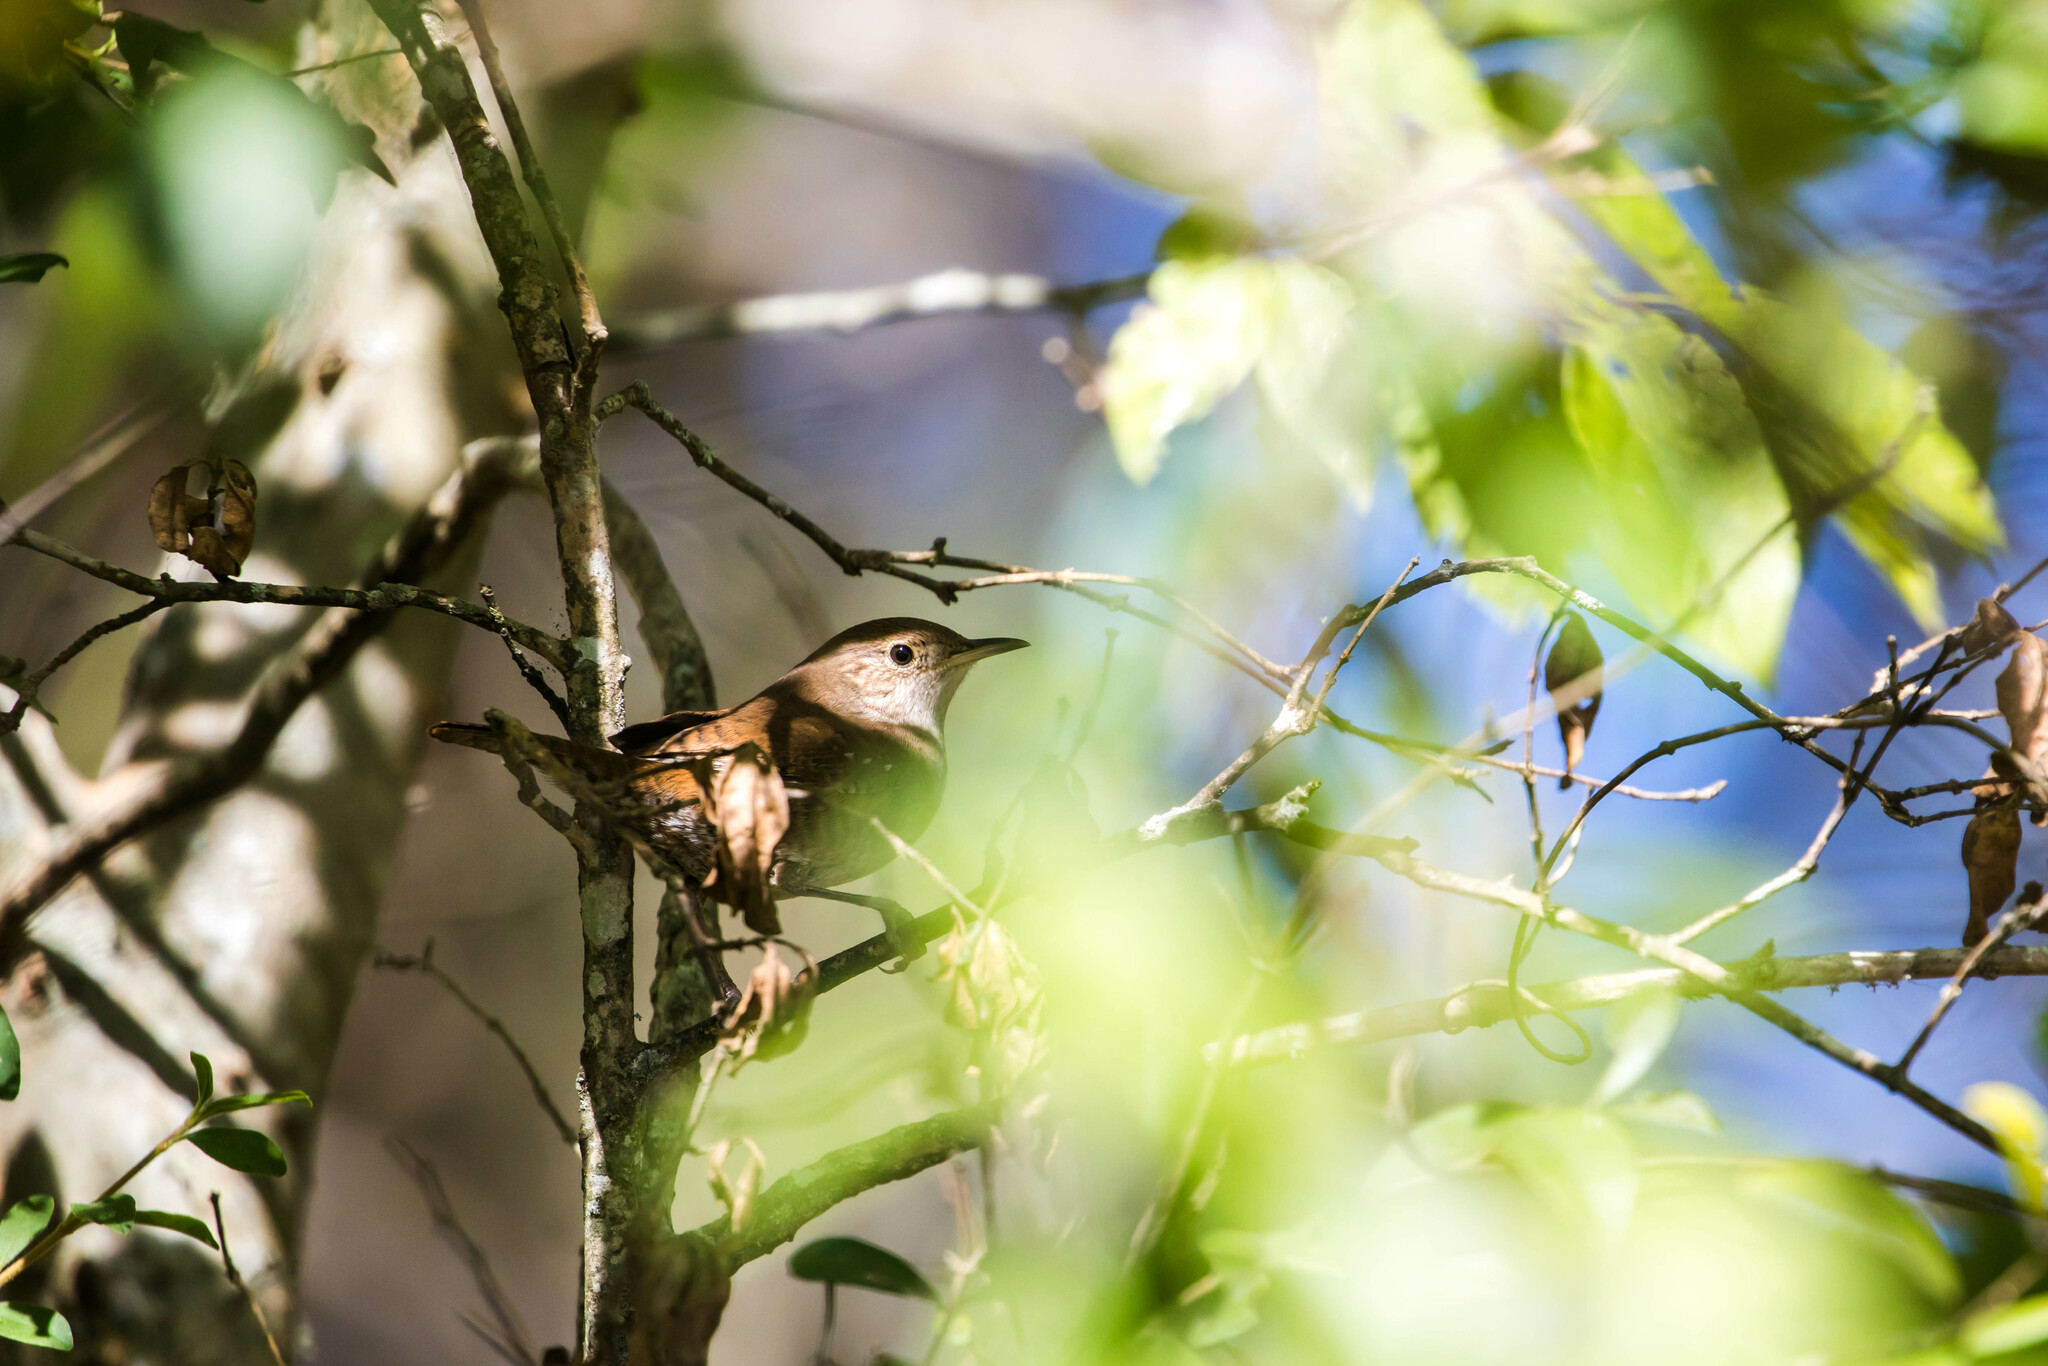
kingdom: Animalia
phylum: Chordata
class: Aves
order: Passeriformes
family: Troglodytidae
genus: Troglodytes
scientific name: Troglodytes aedon
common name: House wren
